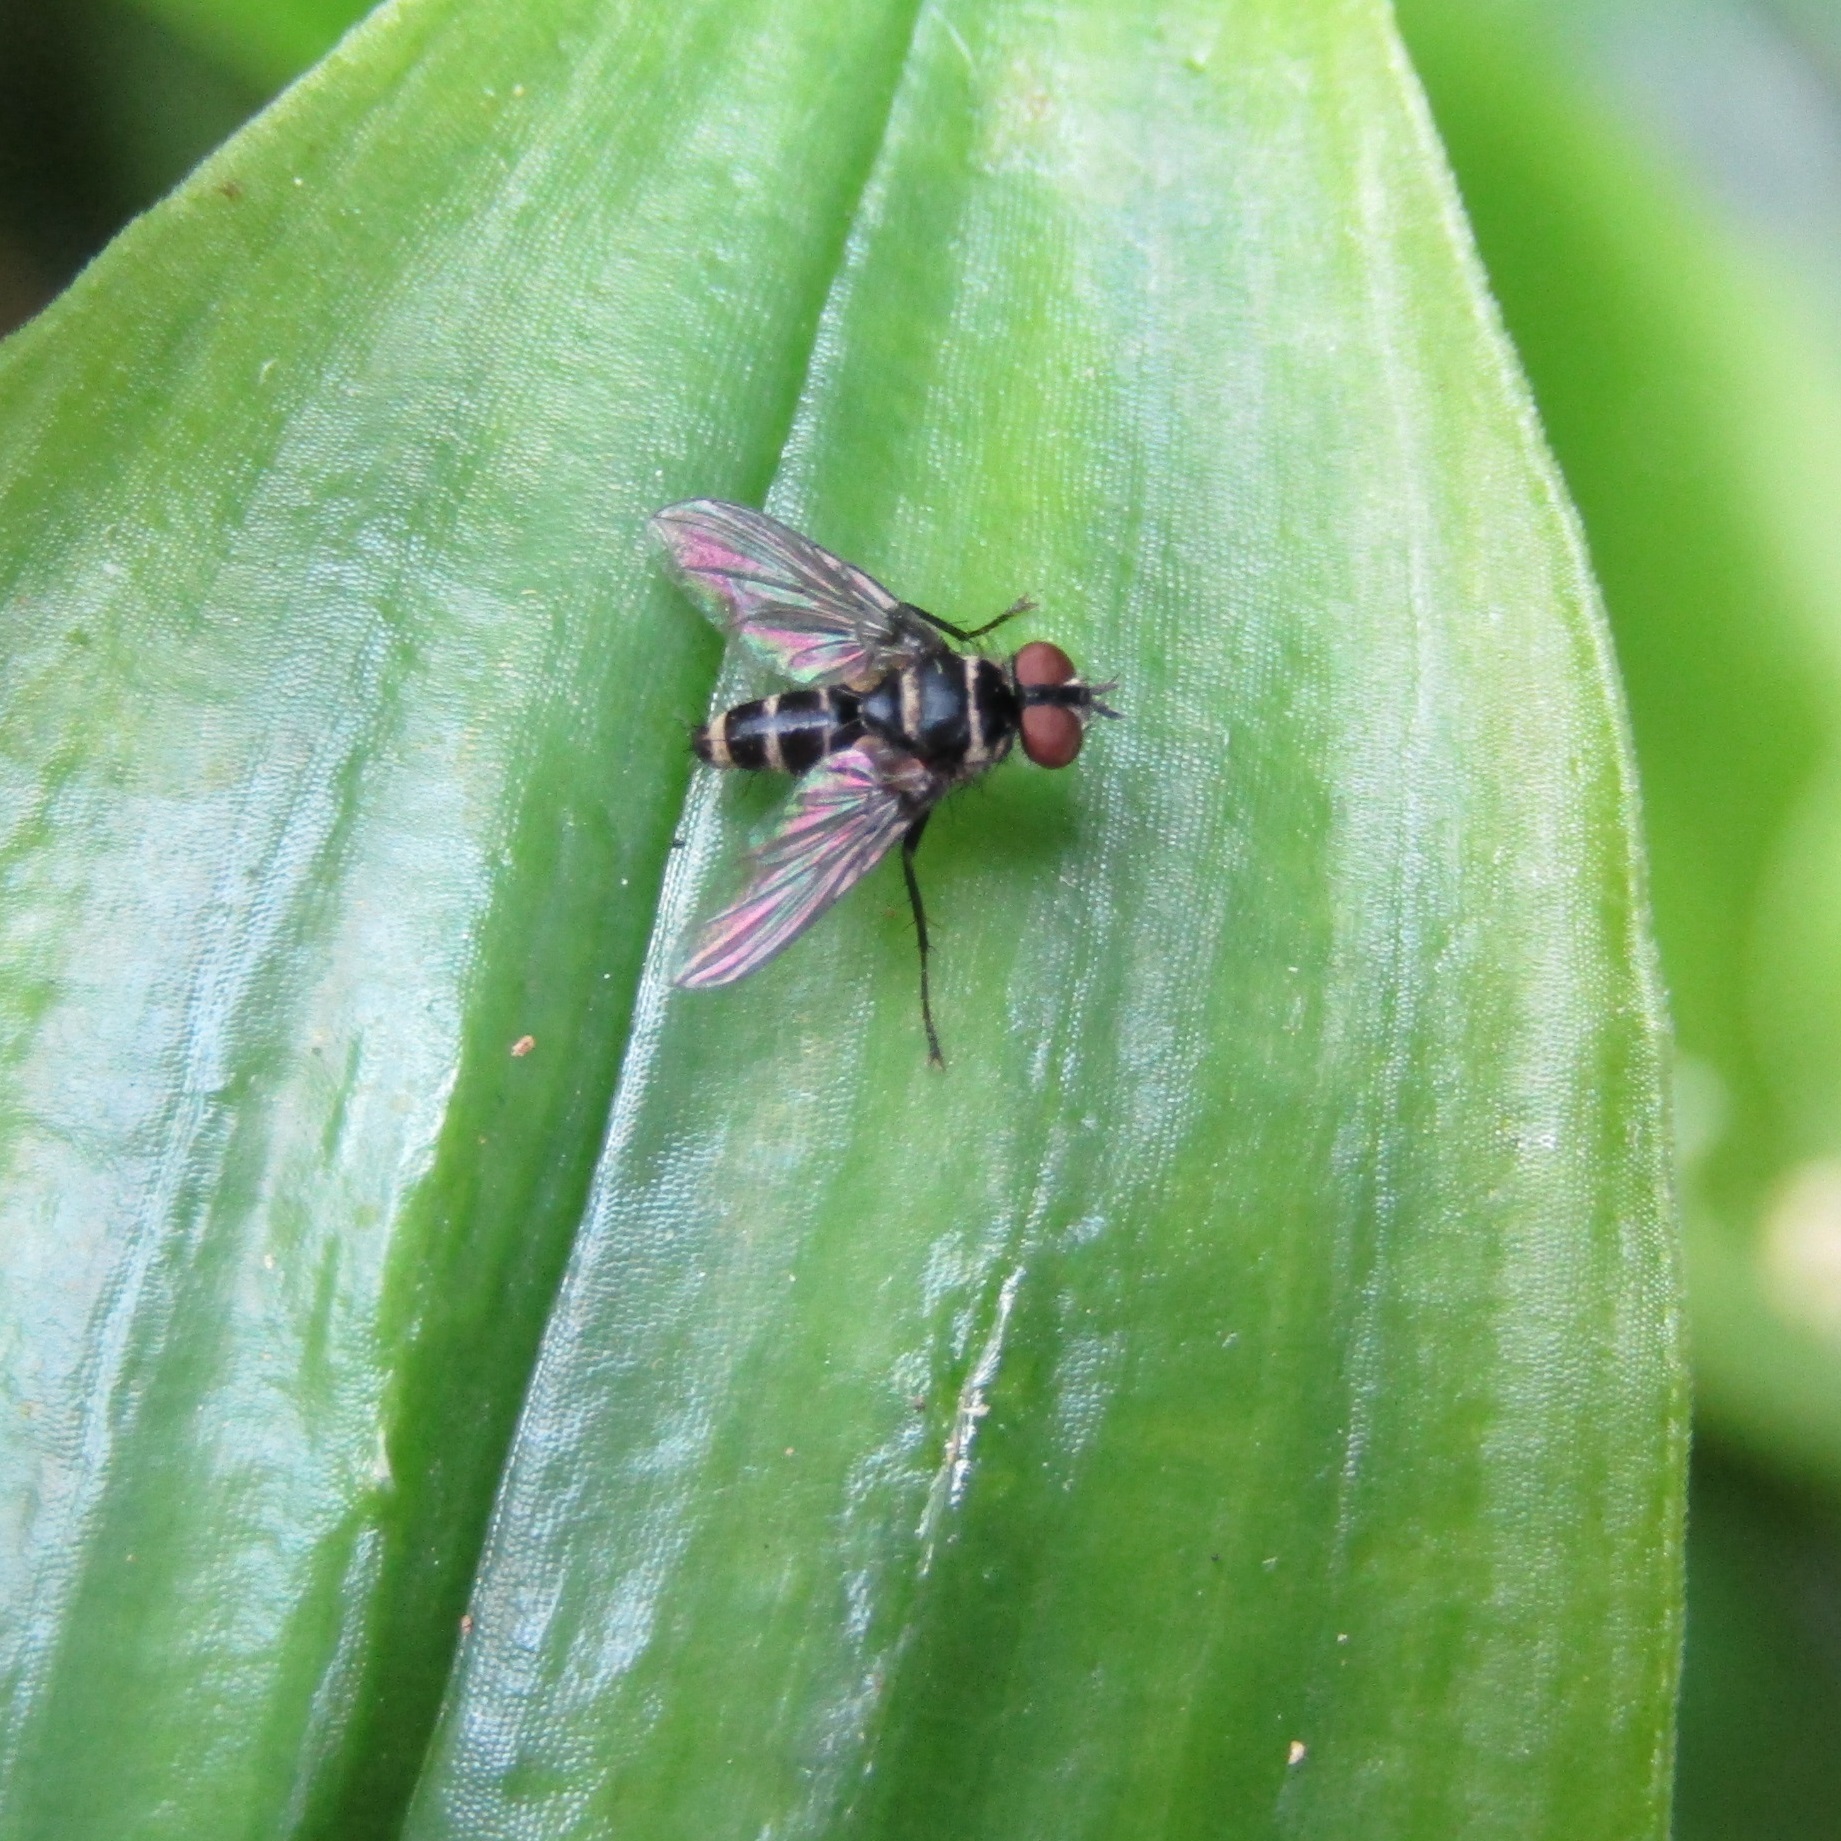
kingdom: Animalia
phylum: Arthropoda
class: Insecta
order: Diptera
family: Tachinidae
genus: Trigonospila
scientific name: Trigonospila brevifacies
